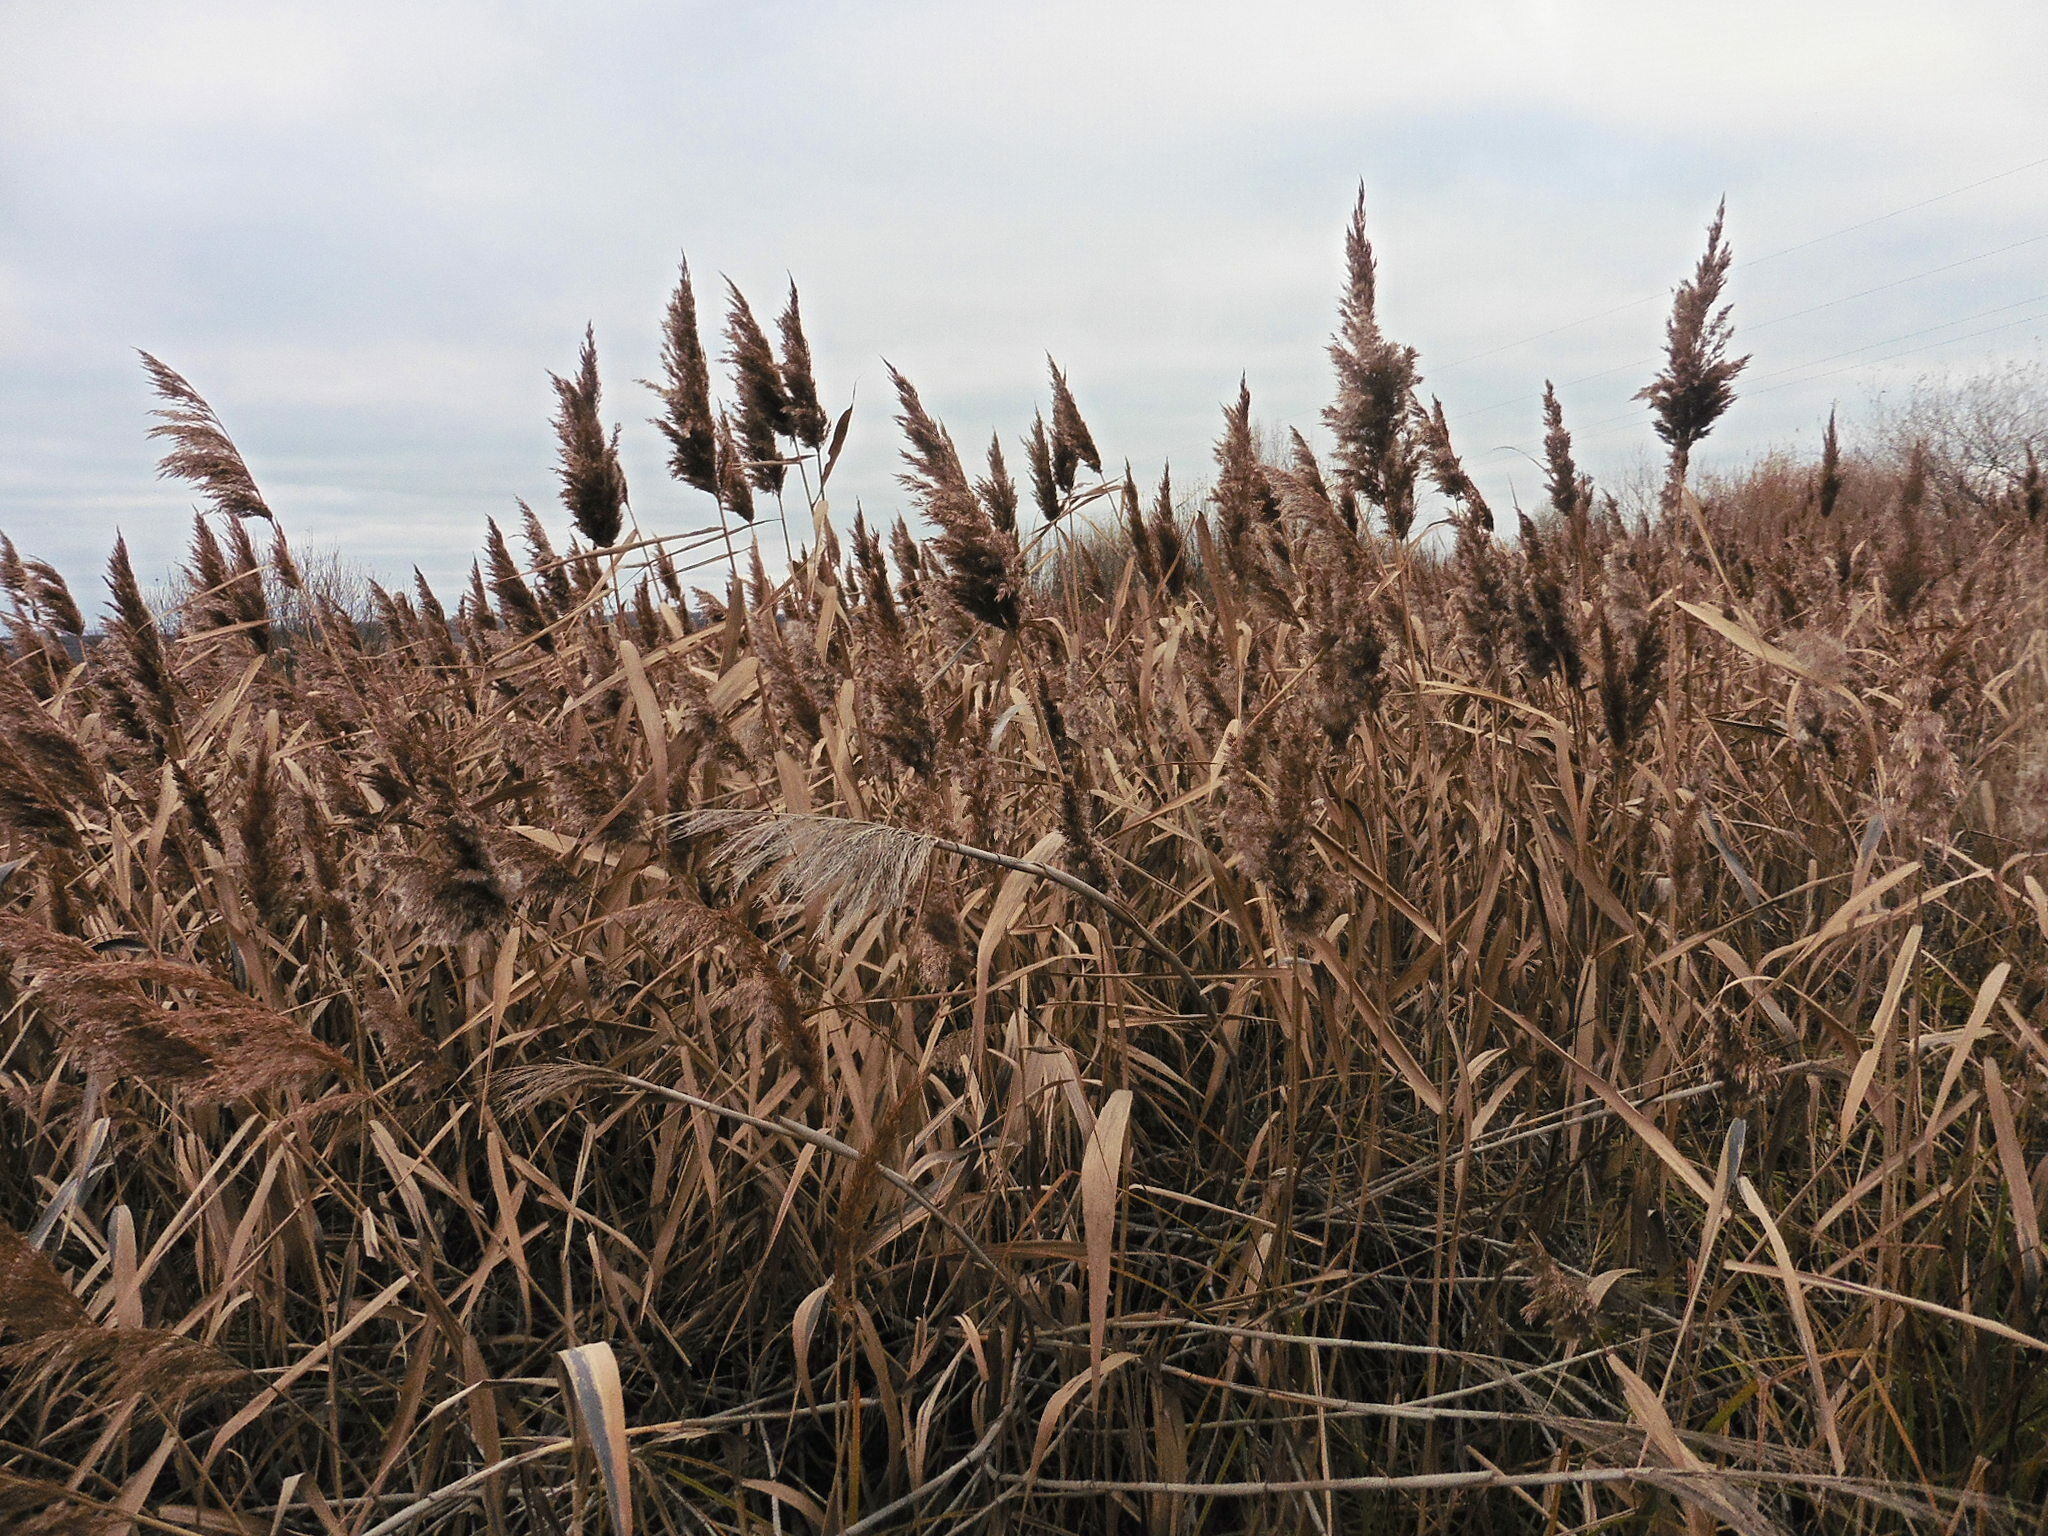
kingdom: Plantae
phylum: Tracheophyta
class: Liliopsida
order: Poales
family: Poaceae
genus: Phragmites
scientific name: Phragmites australis
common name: Common reed
